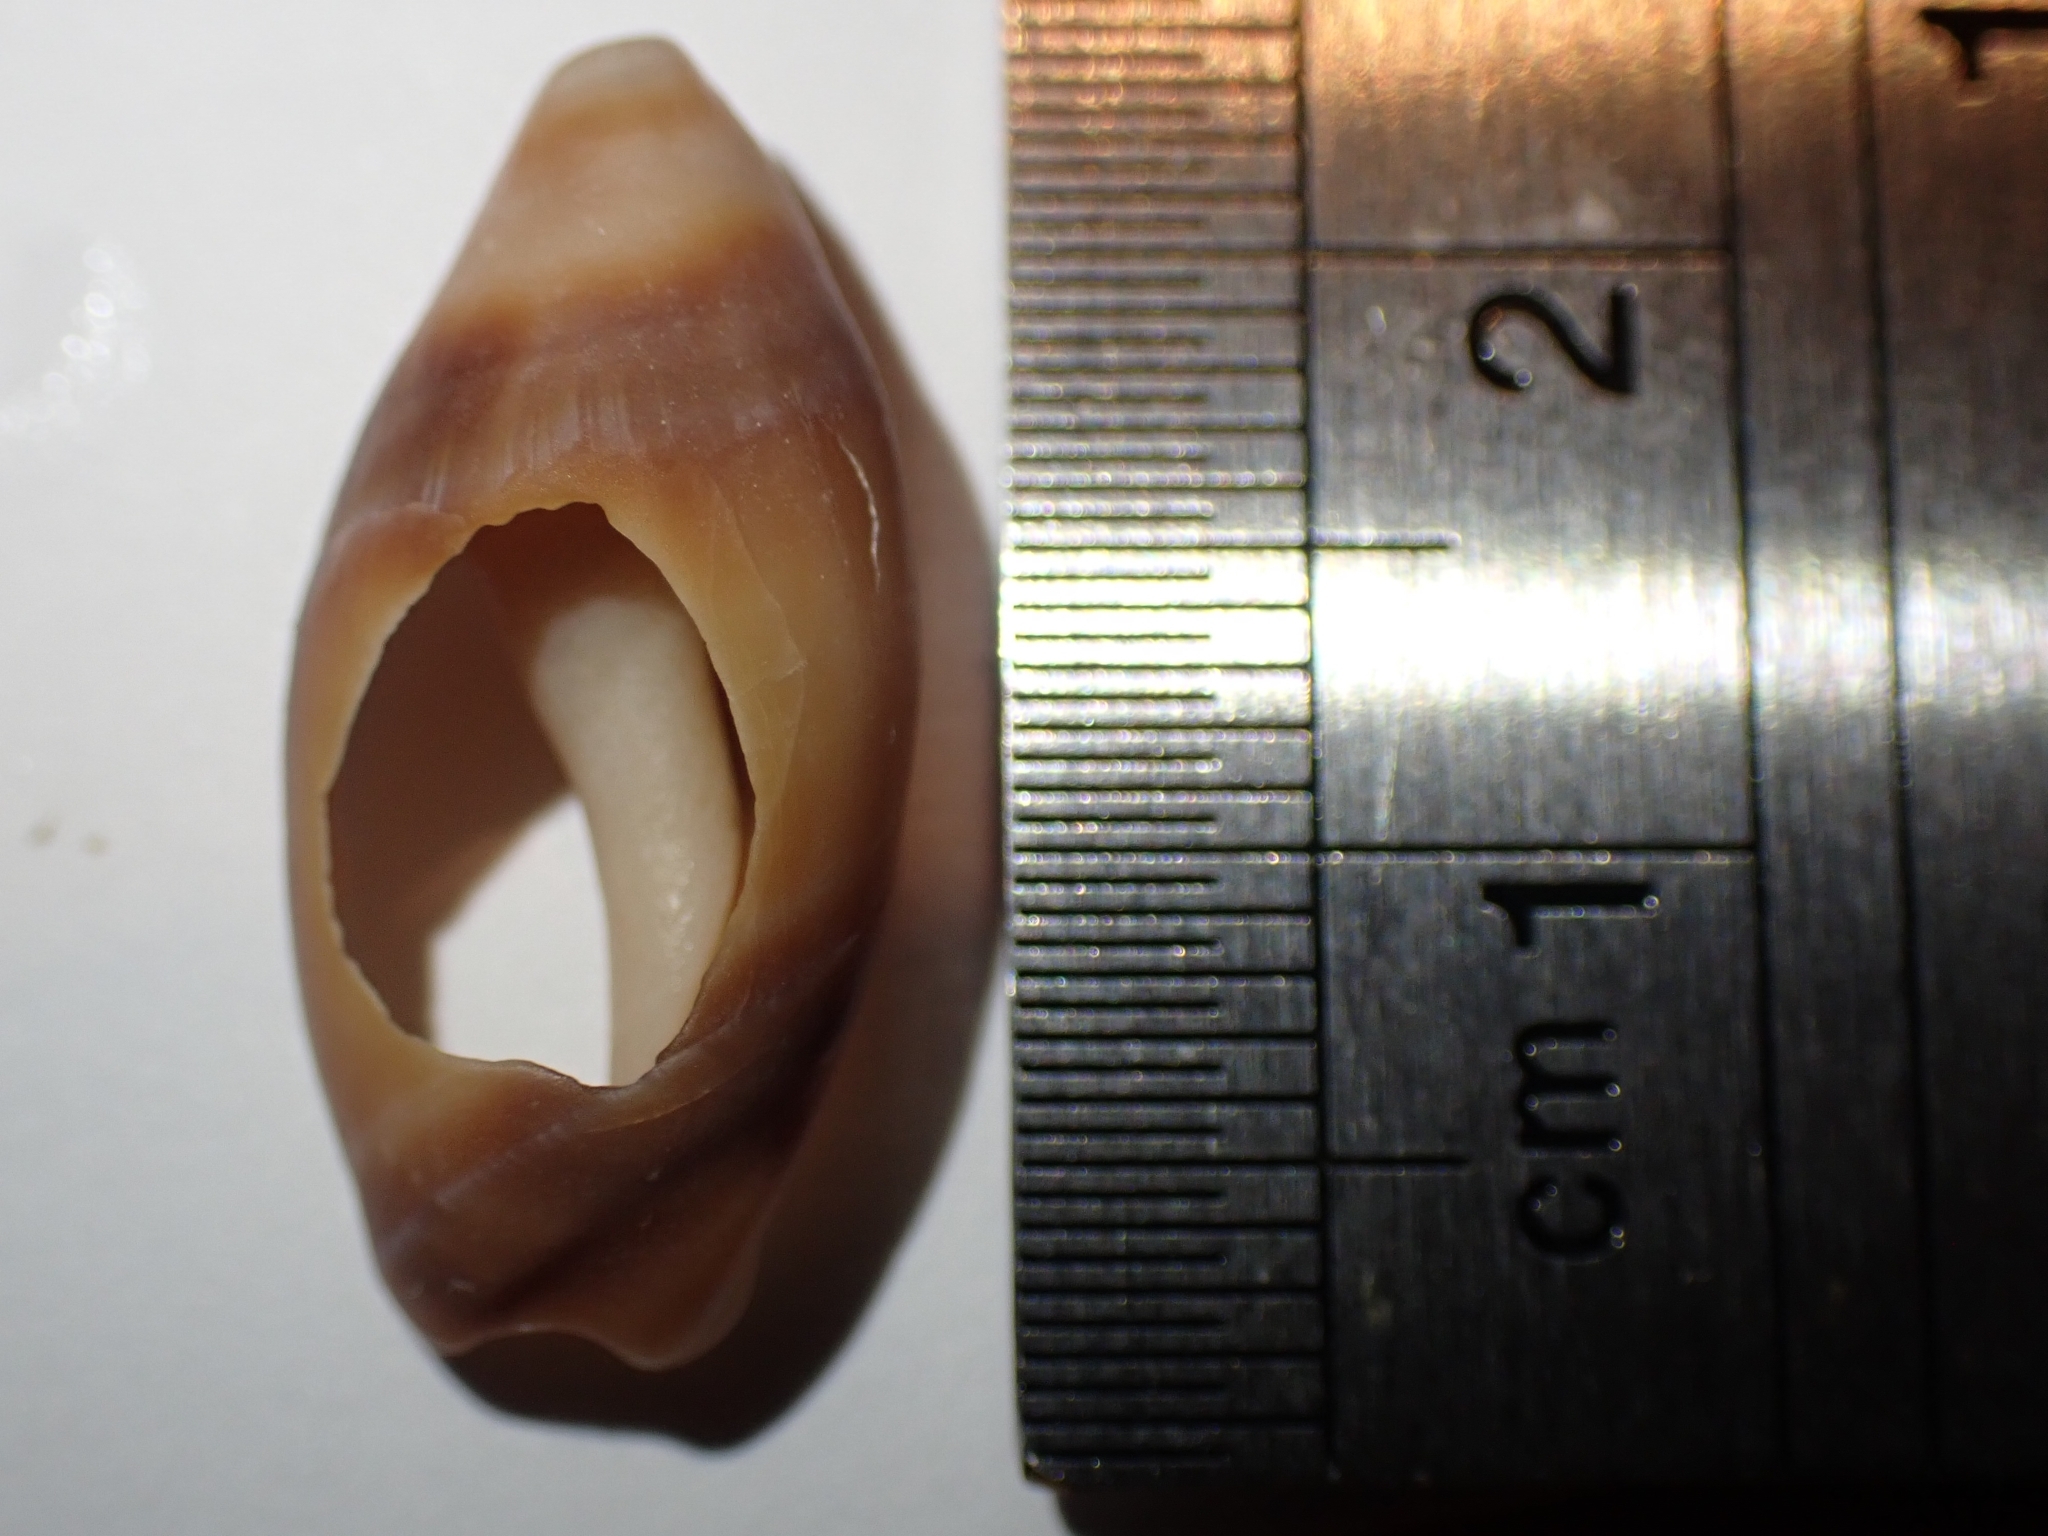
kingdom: Animalia
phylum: Mollusca
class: Gastropoda
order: Neogastropoda
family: Ancillariidae
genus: Amalda
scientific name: Amalda australis
